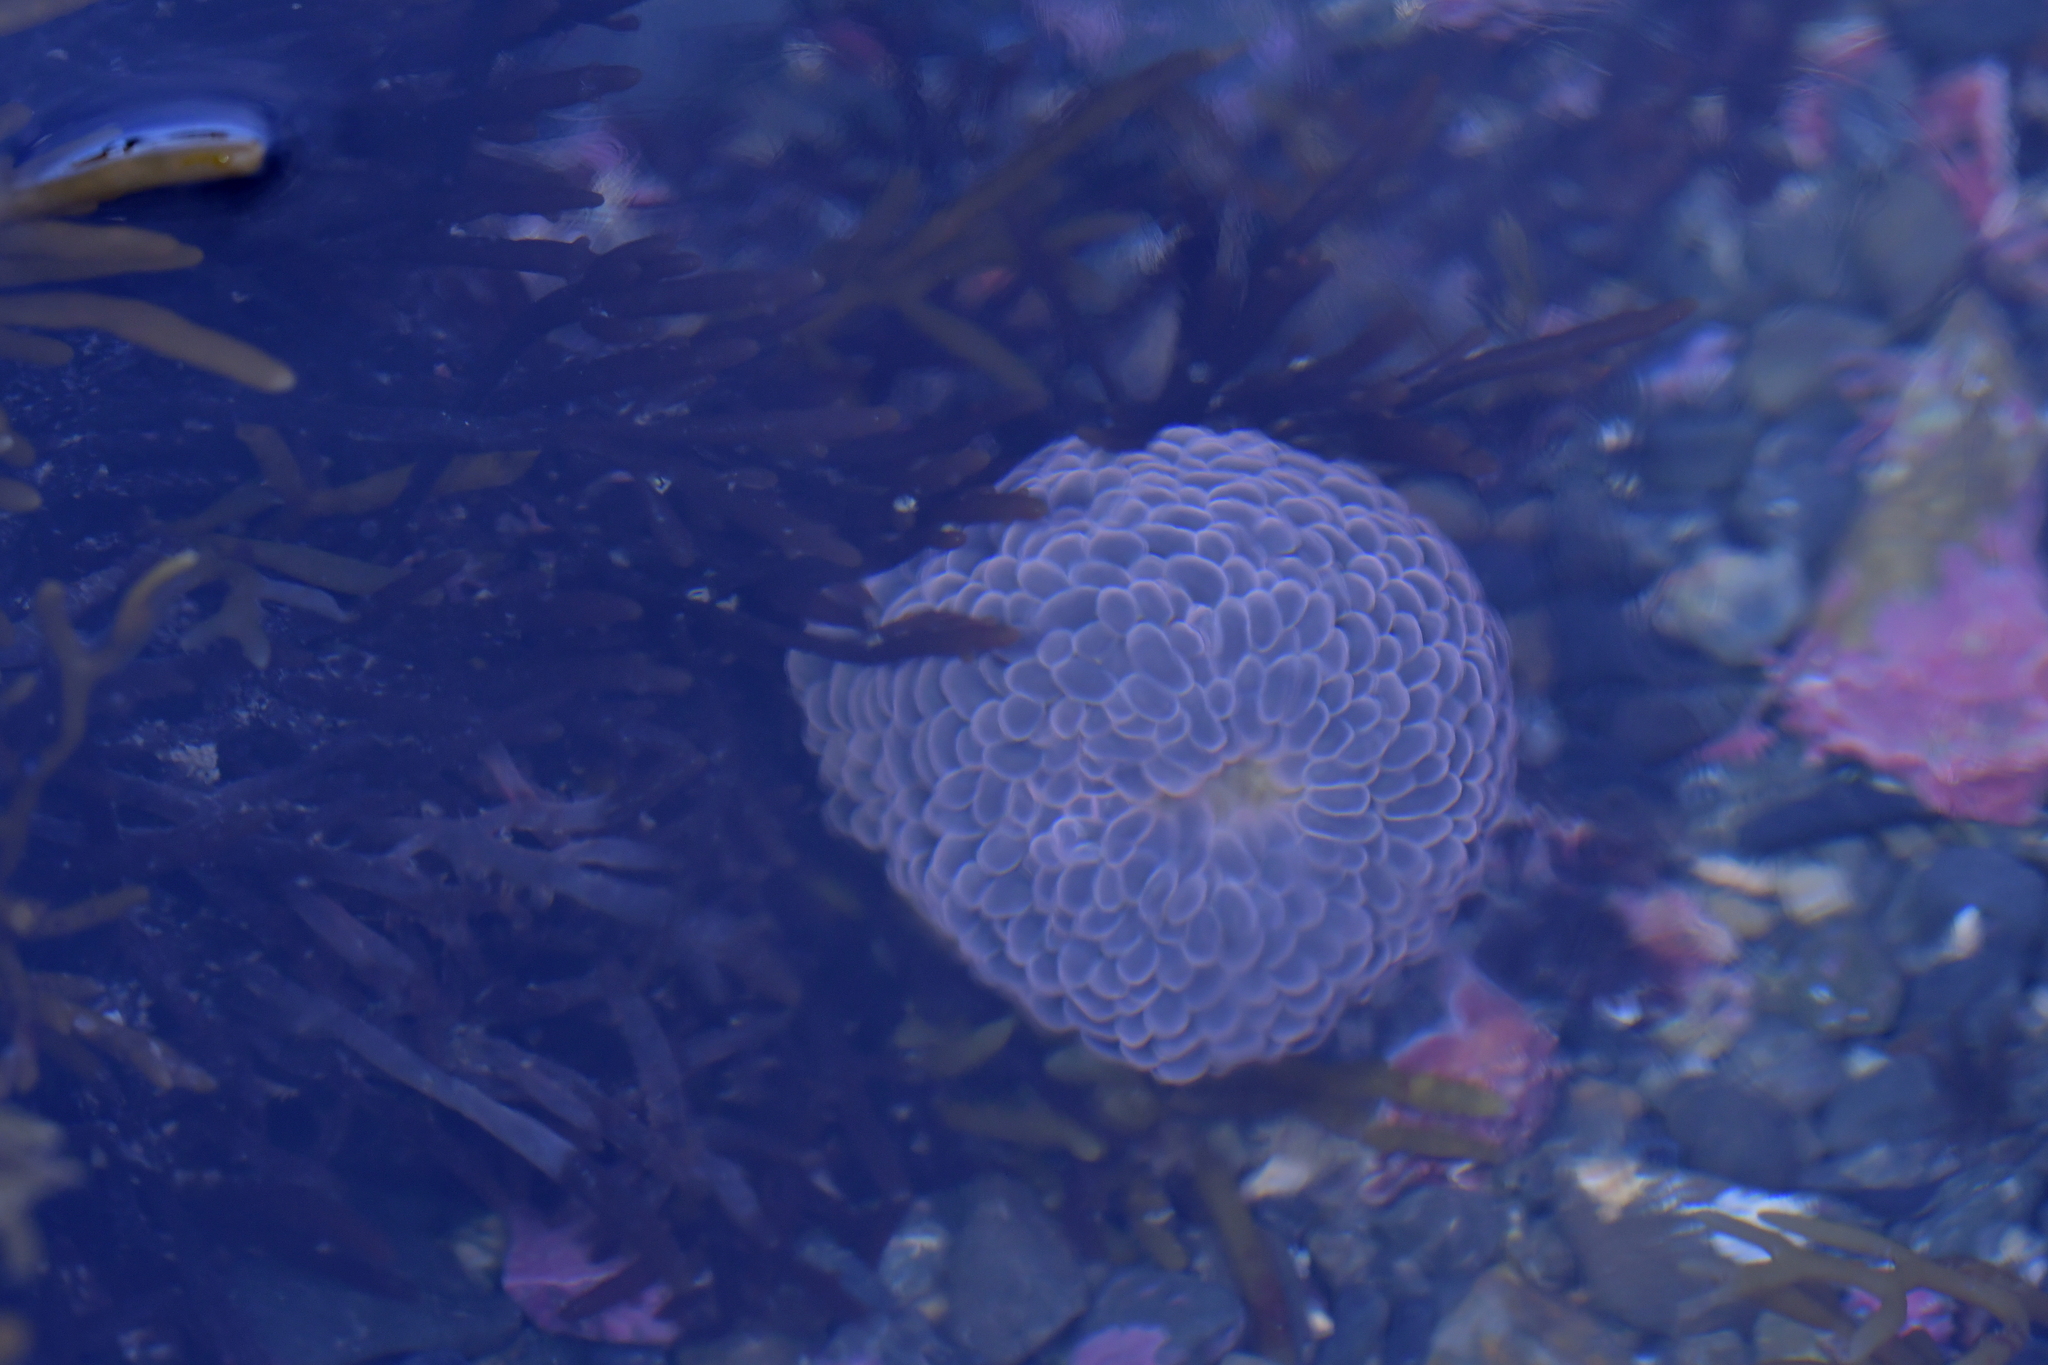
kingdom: Animalia
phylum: Cnidaria
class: Anthozoa
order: Actiniaria
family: Actiniidae
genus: Phlyctenactis
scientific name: Phlyctenactis tuberculosa
